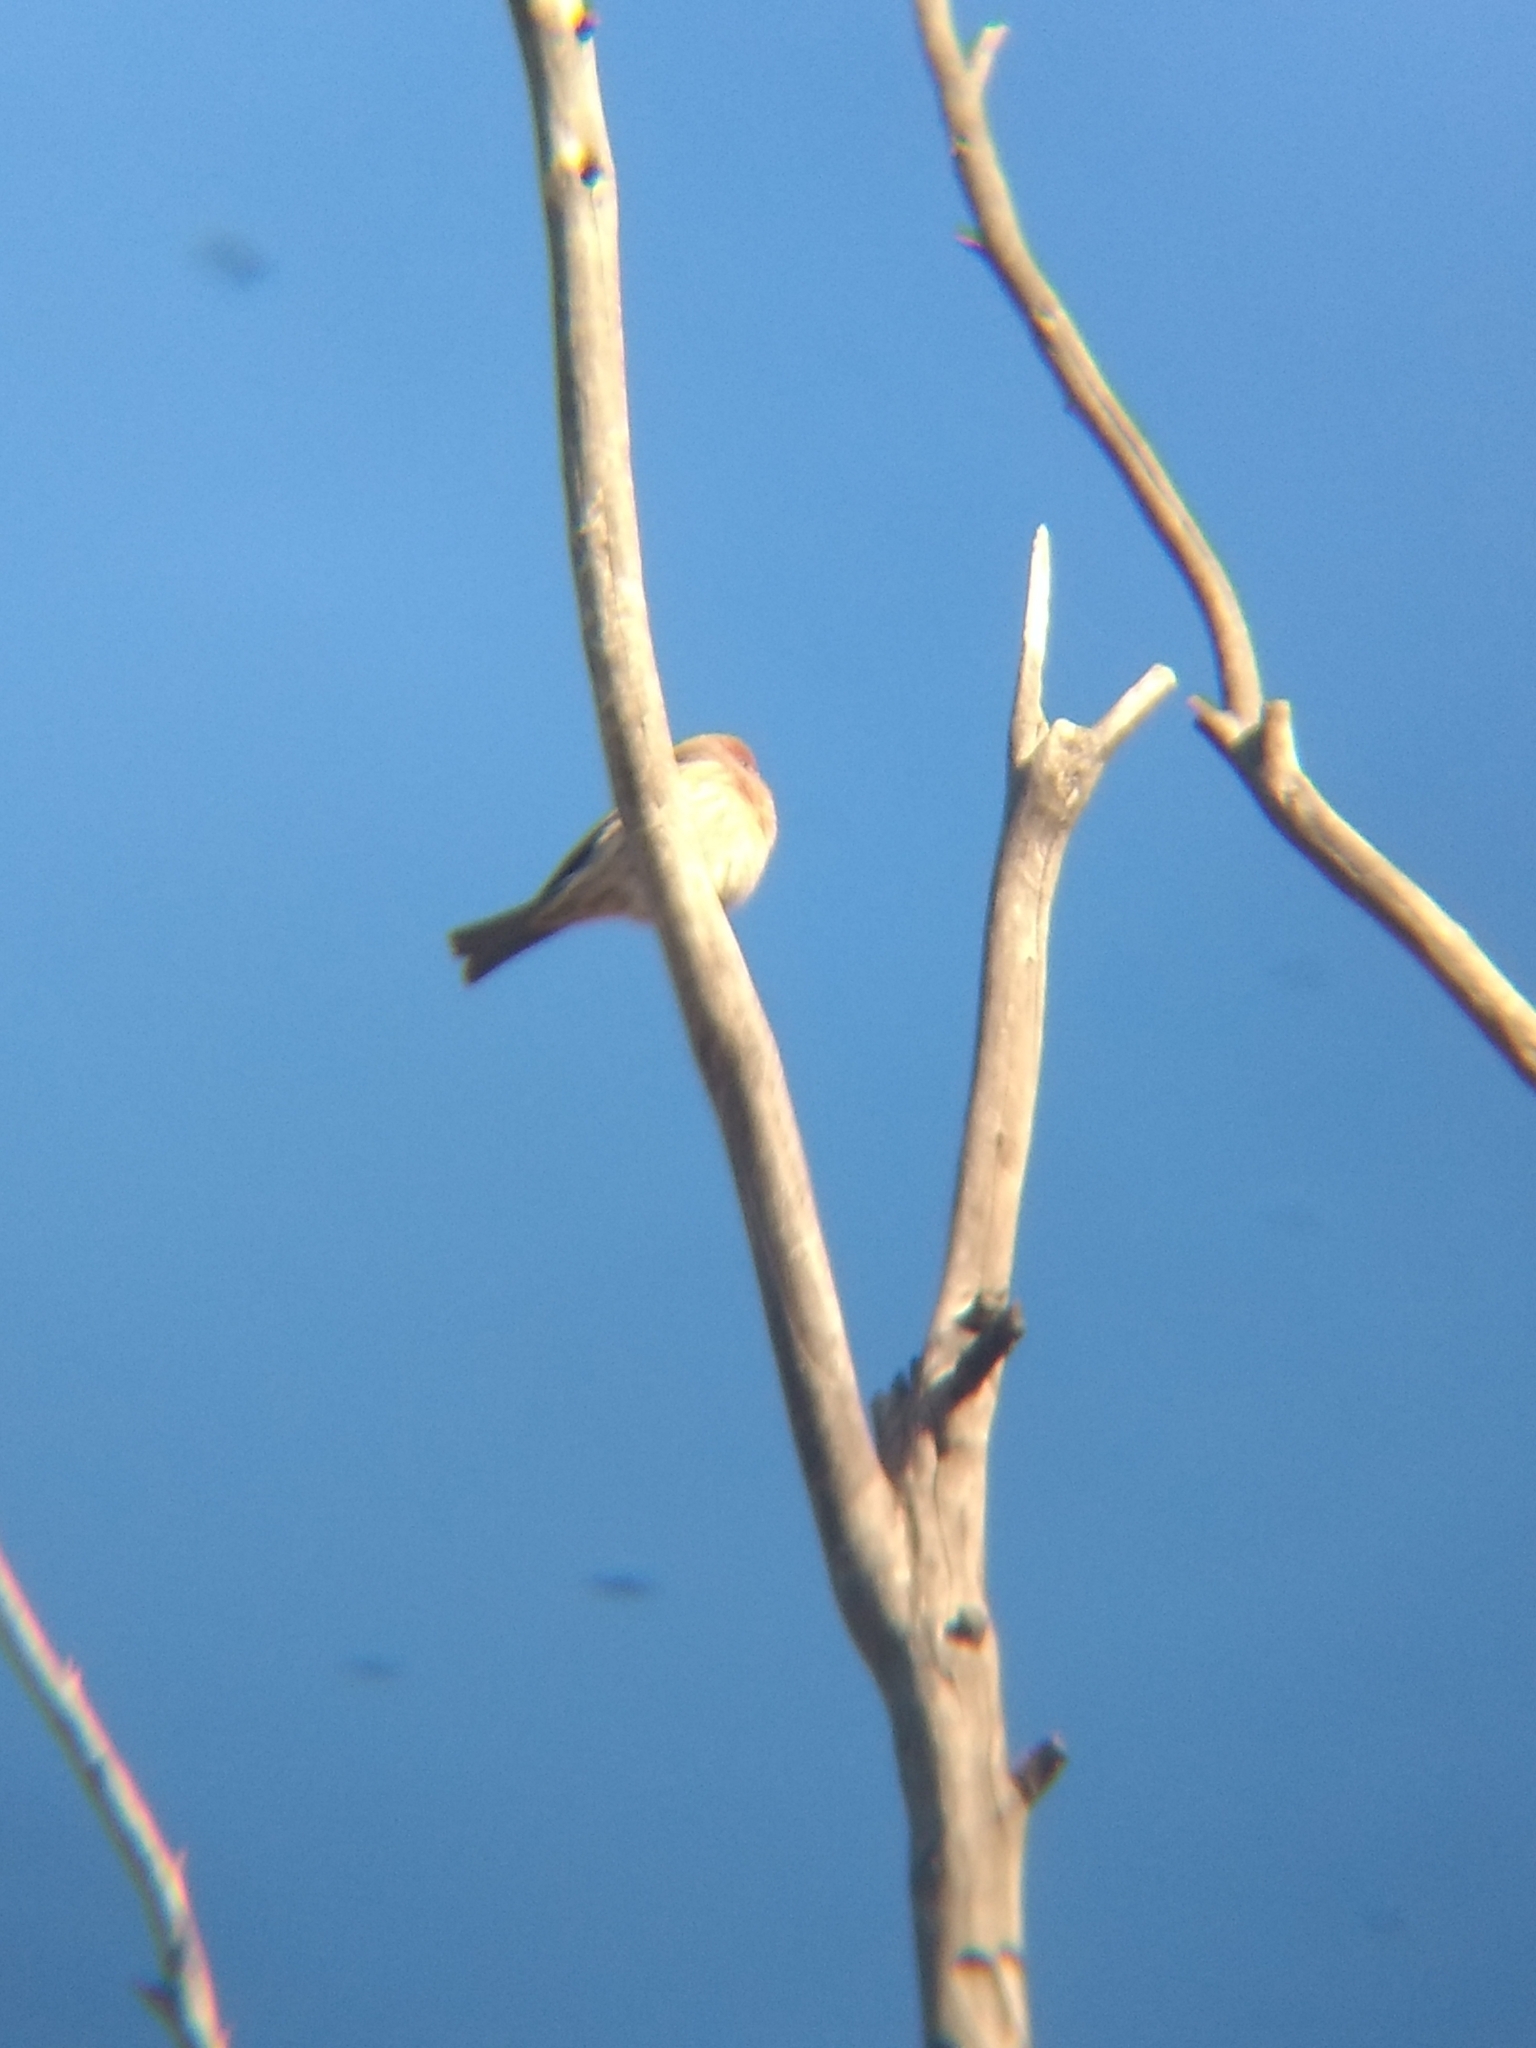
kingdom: Animalia
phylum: Chordata
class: Aves
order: Passeriformes
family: Fringillidae
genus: Haemorhous
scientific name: Haemorhous mexicanus
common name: House finch
